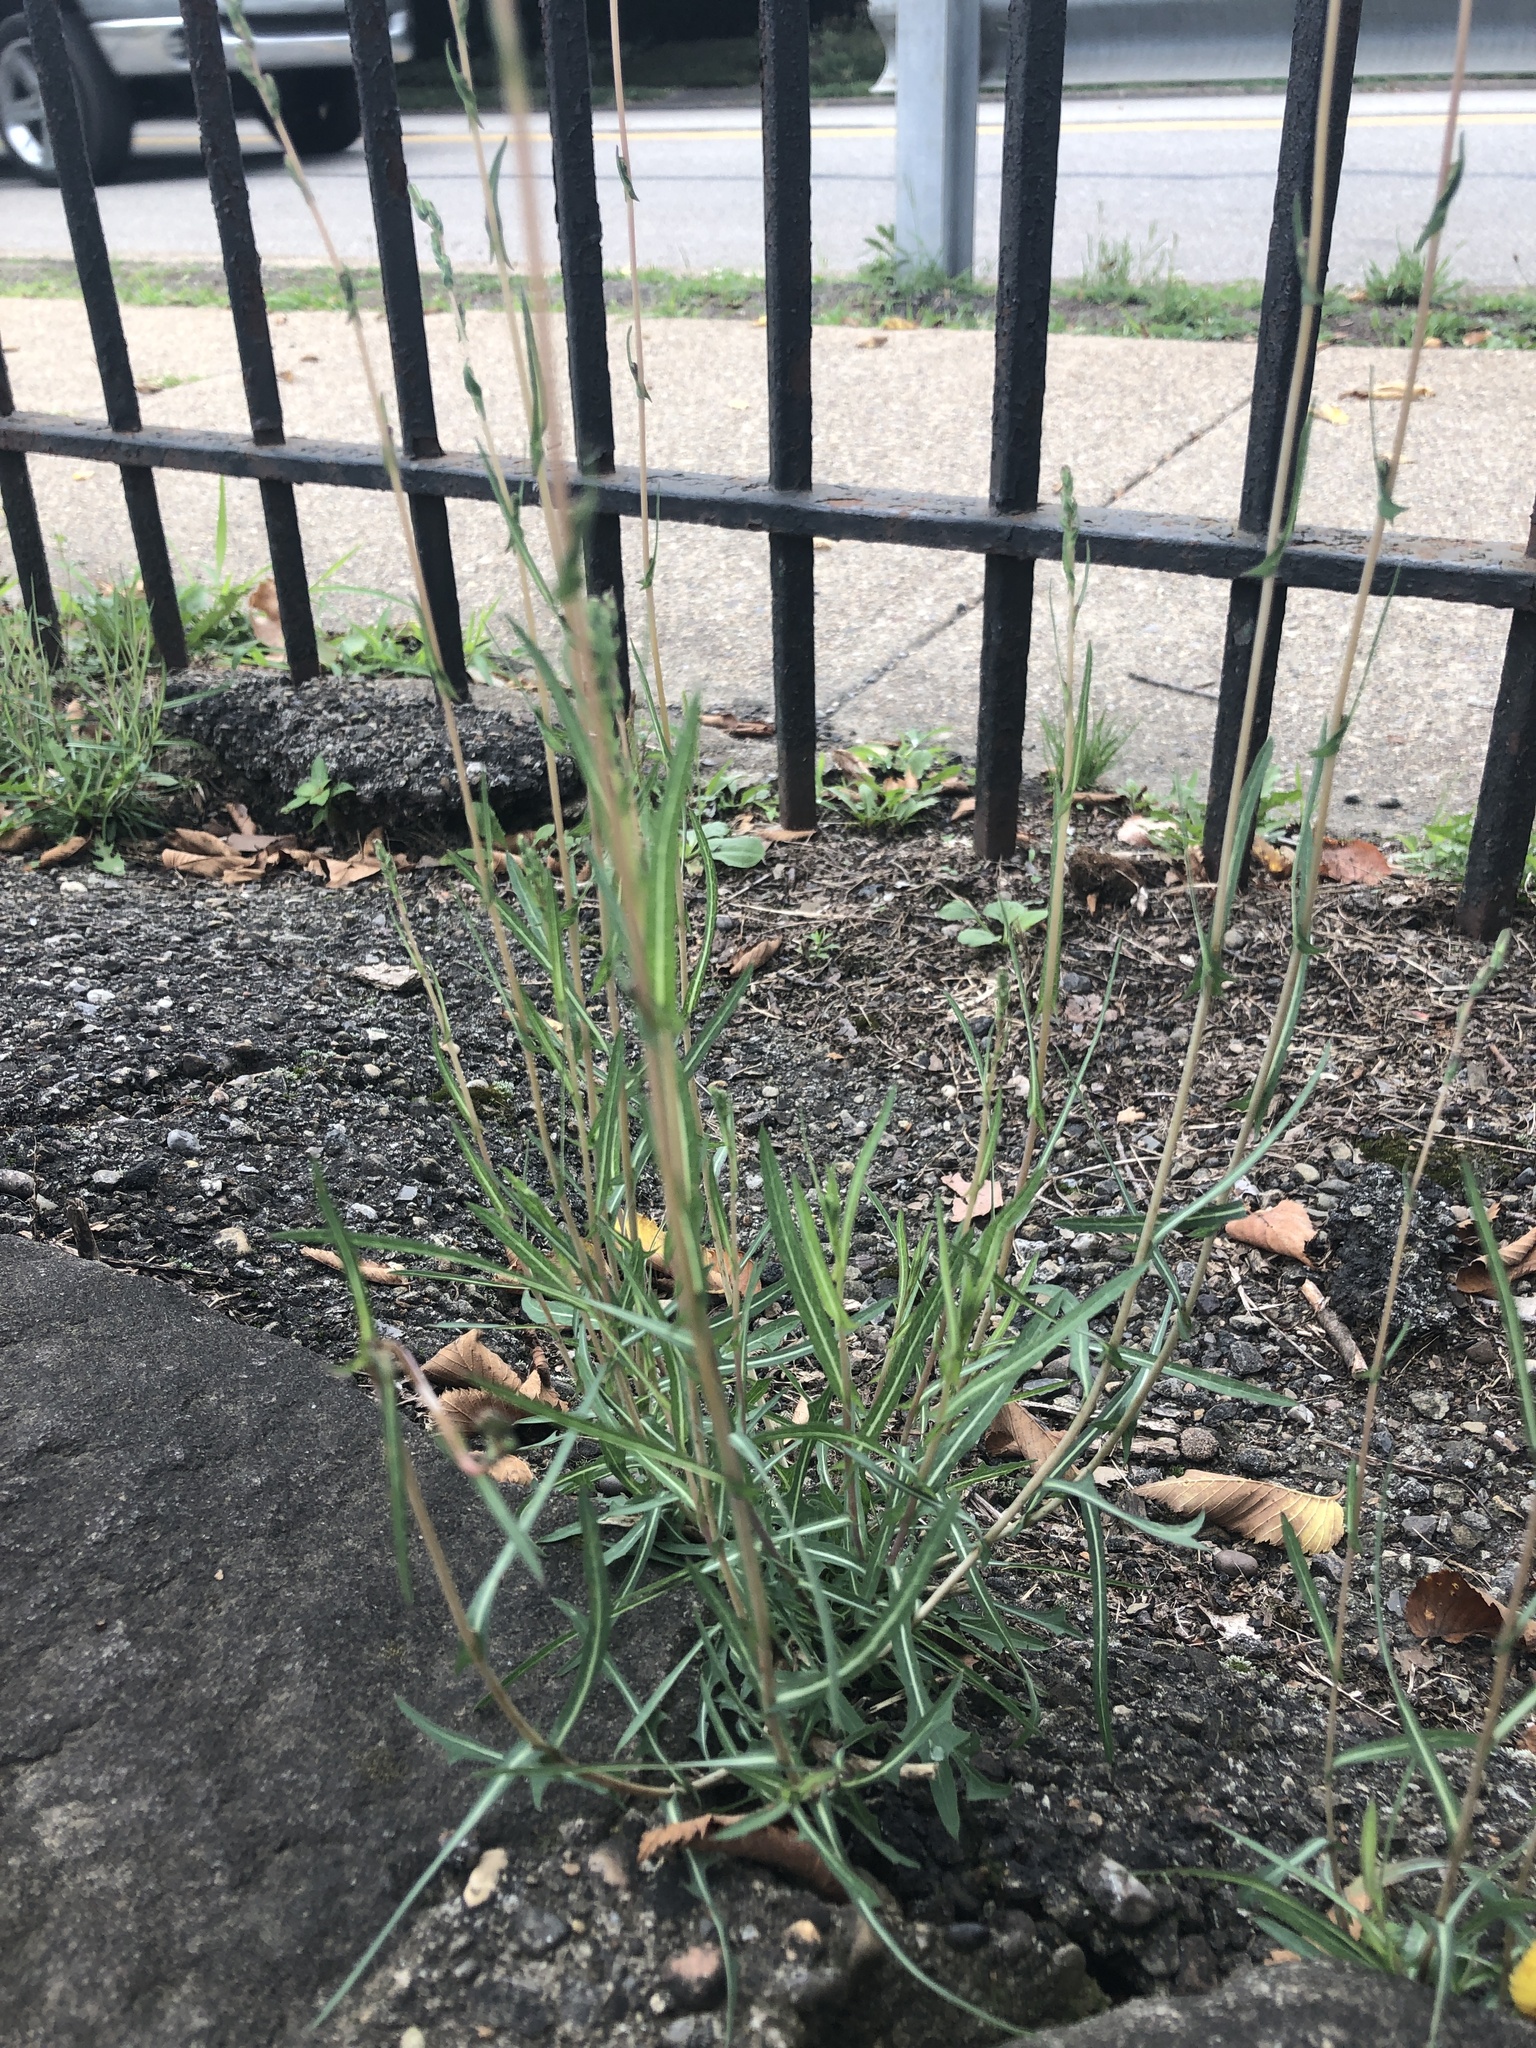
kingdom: Plantae
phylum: Tracheophyta
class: Magnoliopsida
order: Asterales
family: Asteraceae
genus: Lactuca
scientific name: Lactuca saligna
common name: Wild lettuce
